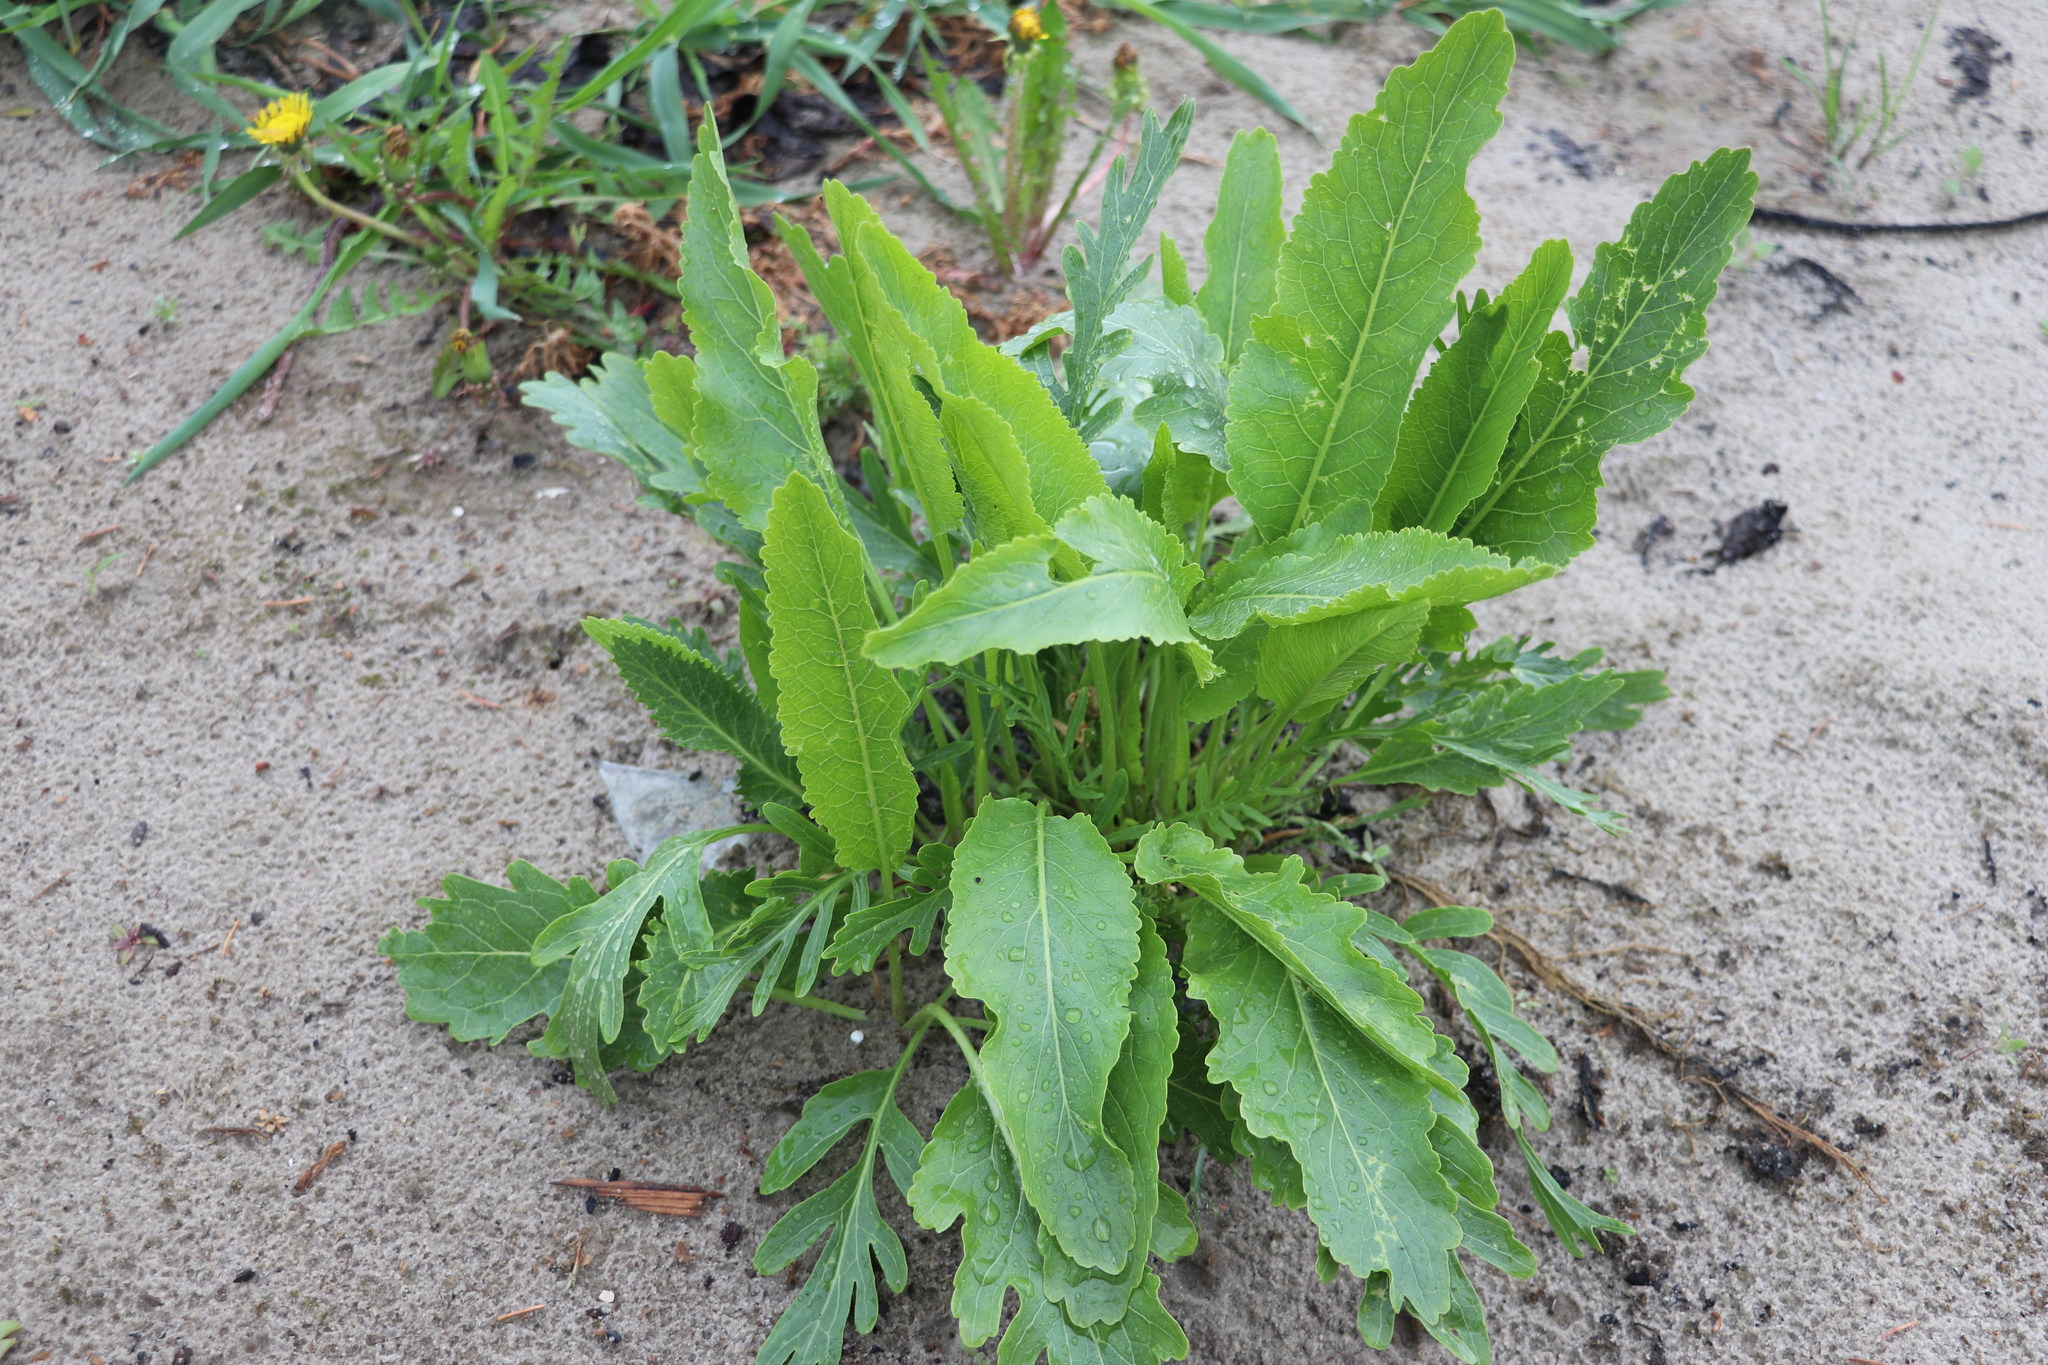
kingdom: Plantae
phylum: Tracheophyta
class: Magnoliopsida
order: Brassicales
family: Brassicaceae
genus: Armoracia
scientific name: Armoracia rusticana
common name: Horseradish
